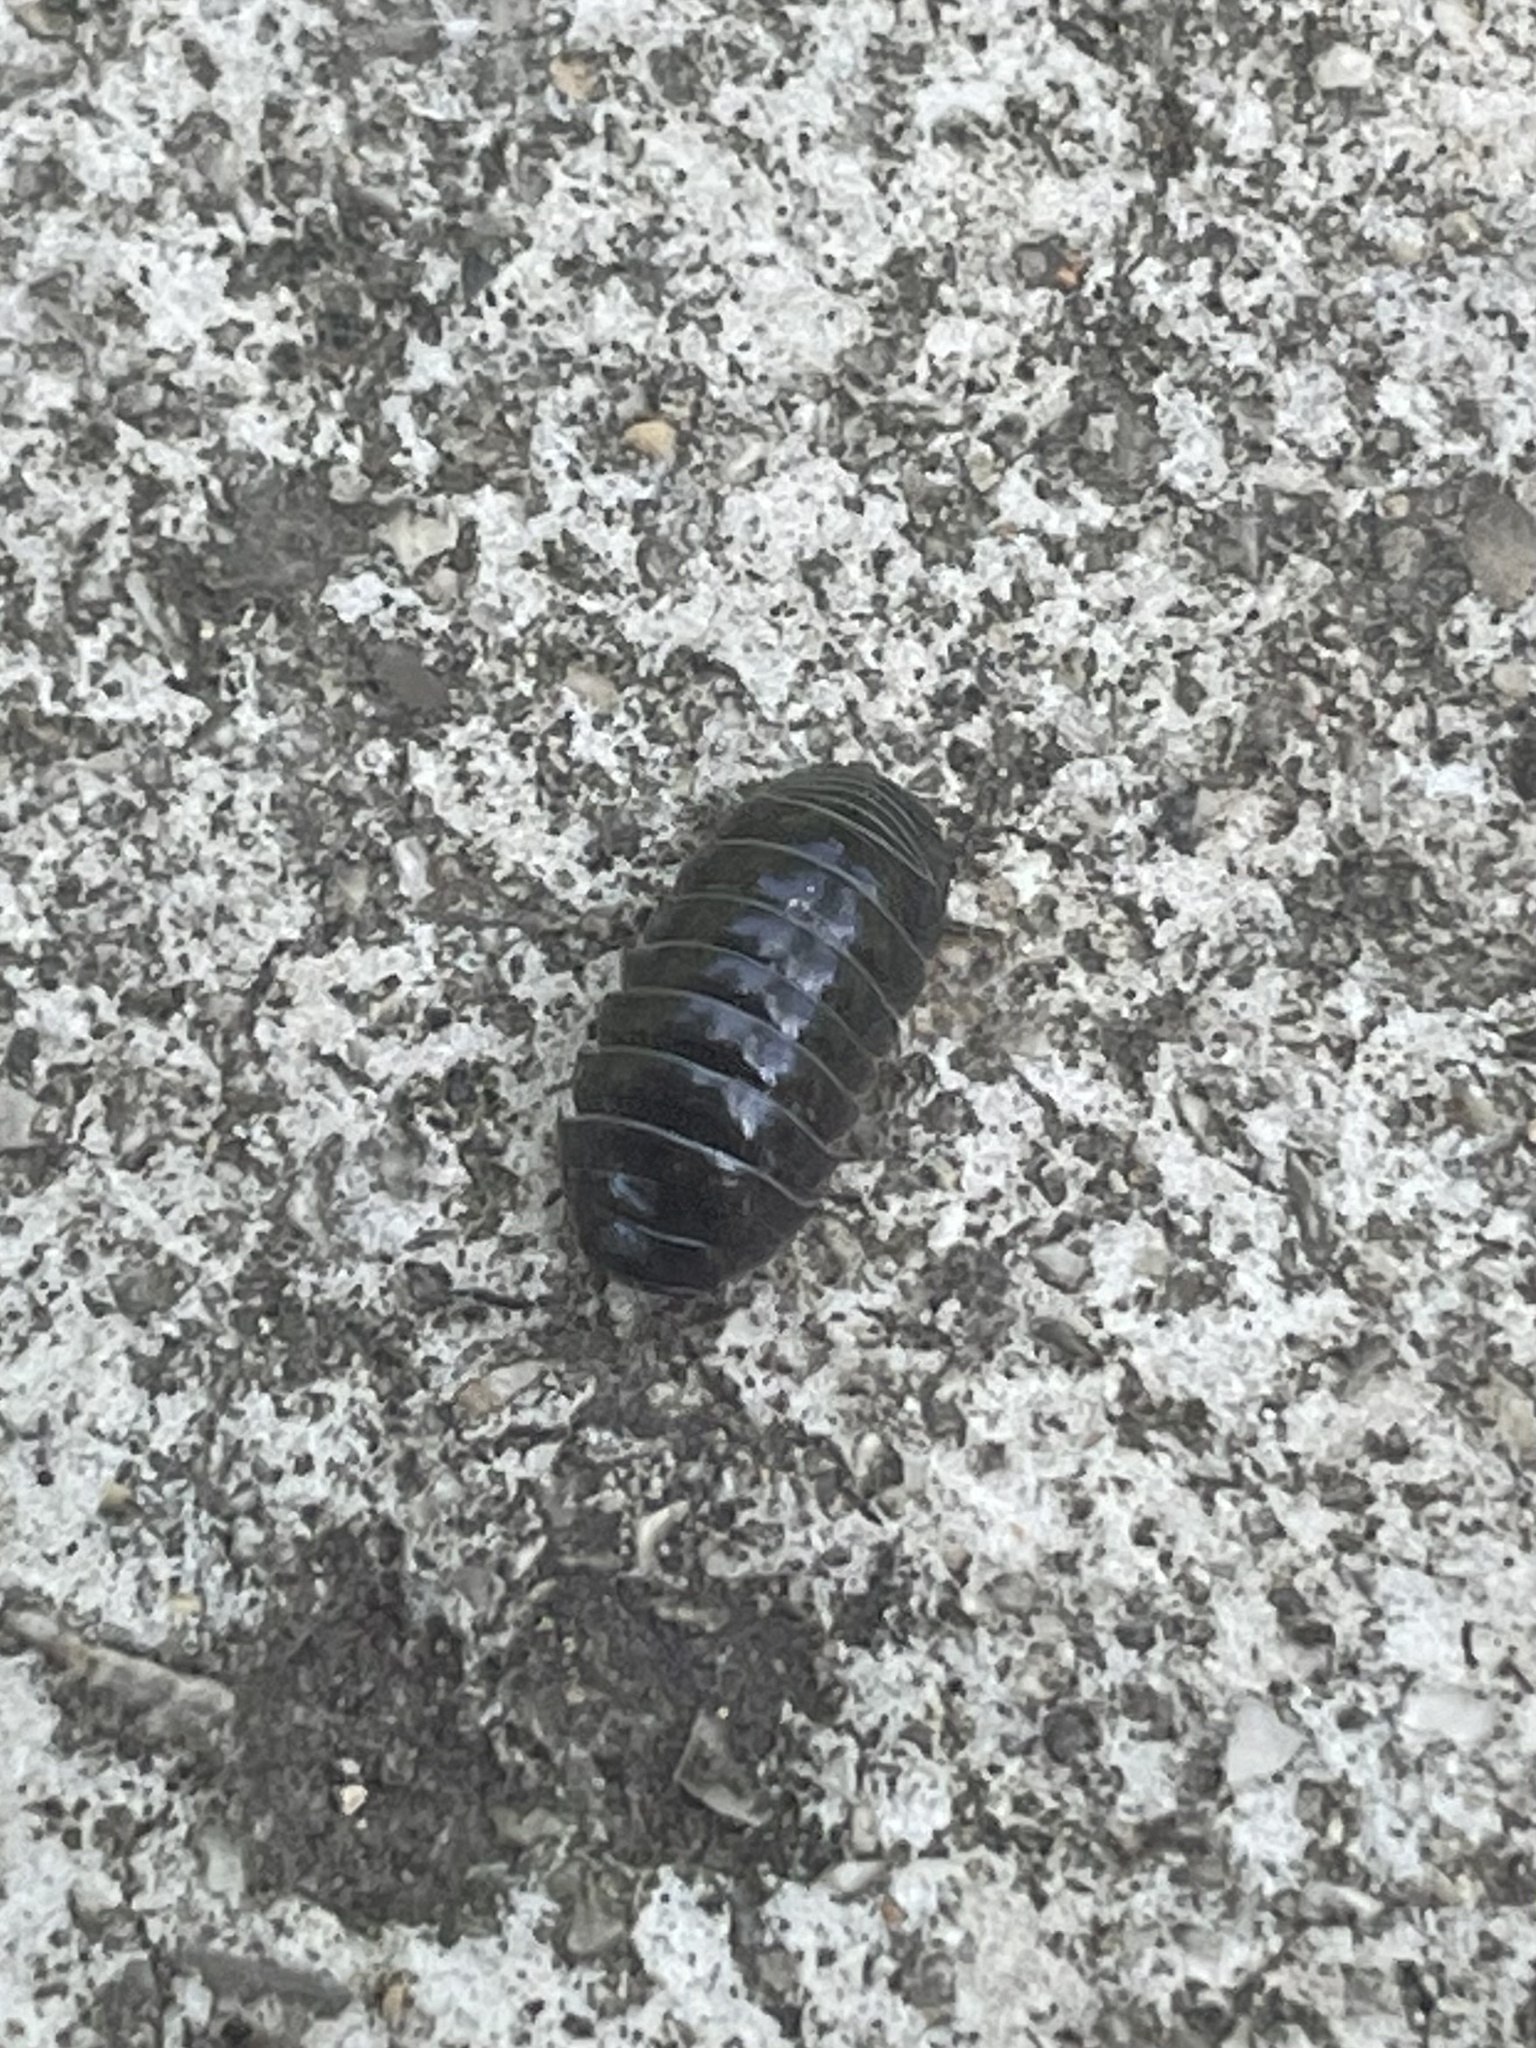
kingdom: Animalia
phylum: Arthropoda
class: Malacostraca
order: Isopoda
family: Armadillidiidae
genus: Armadillidium
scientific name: Armadillidium vulgare
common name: Common pill woodlouse
